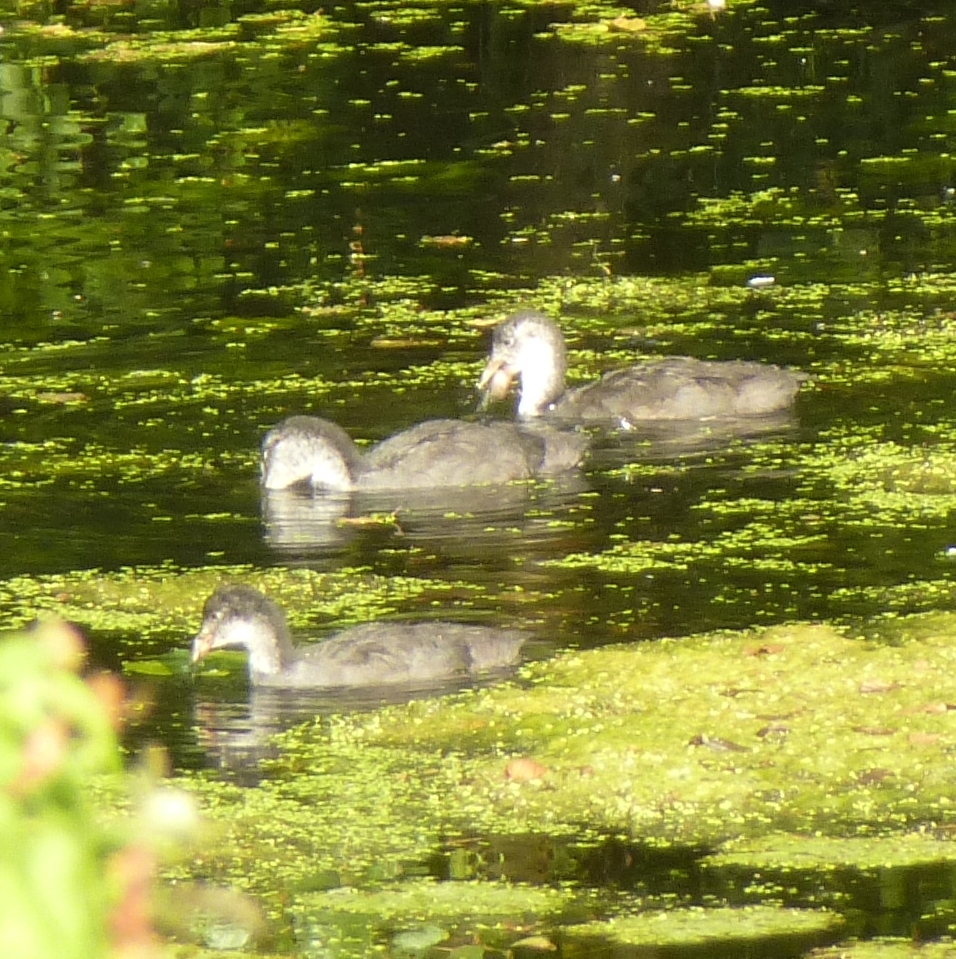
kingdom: Animalia
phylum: Chordata
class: Aves
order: Gruiformes
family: Rallidae
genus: Fulica
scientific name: Fulica atra
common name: Eurasian coot
